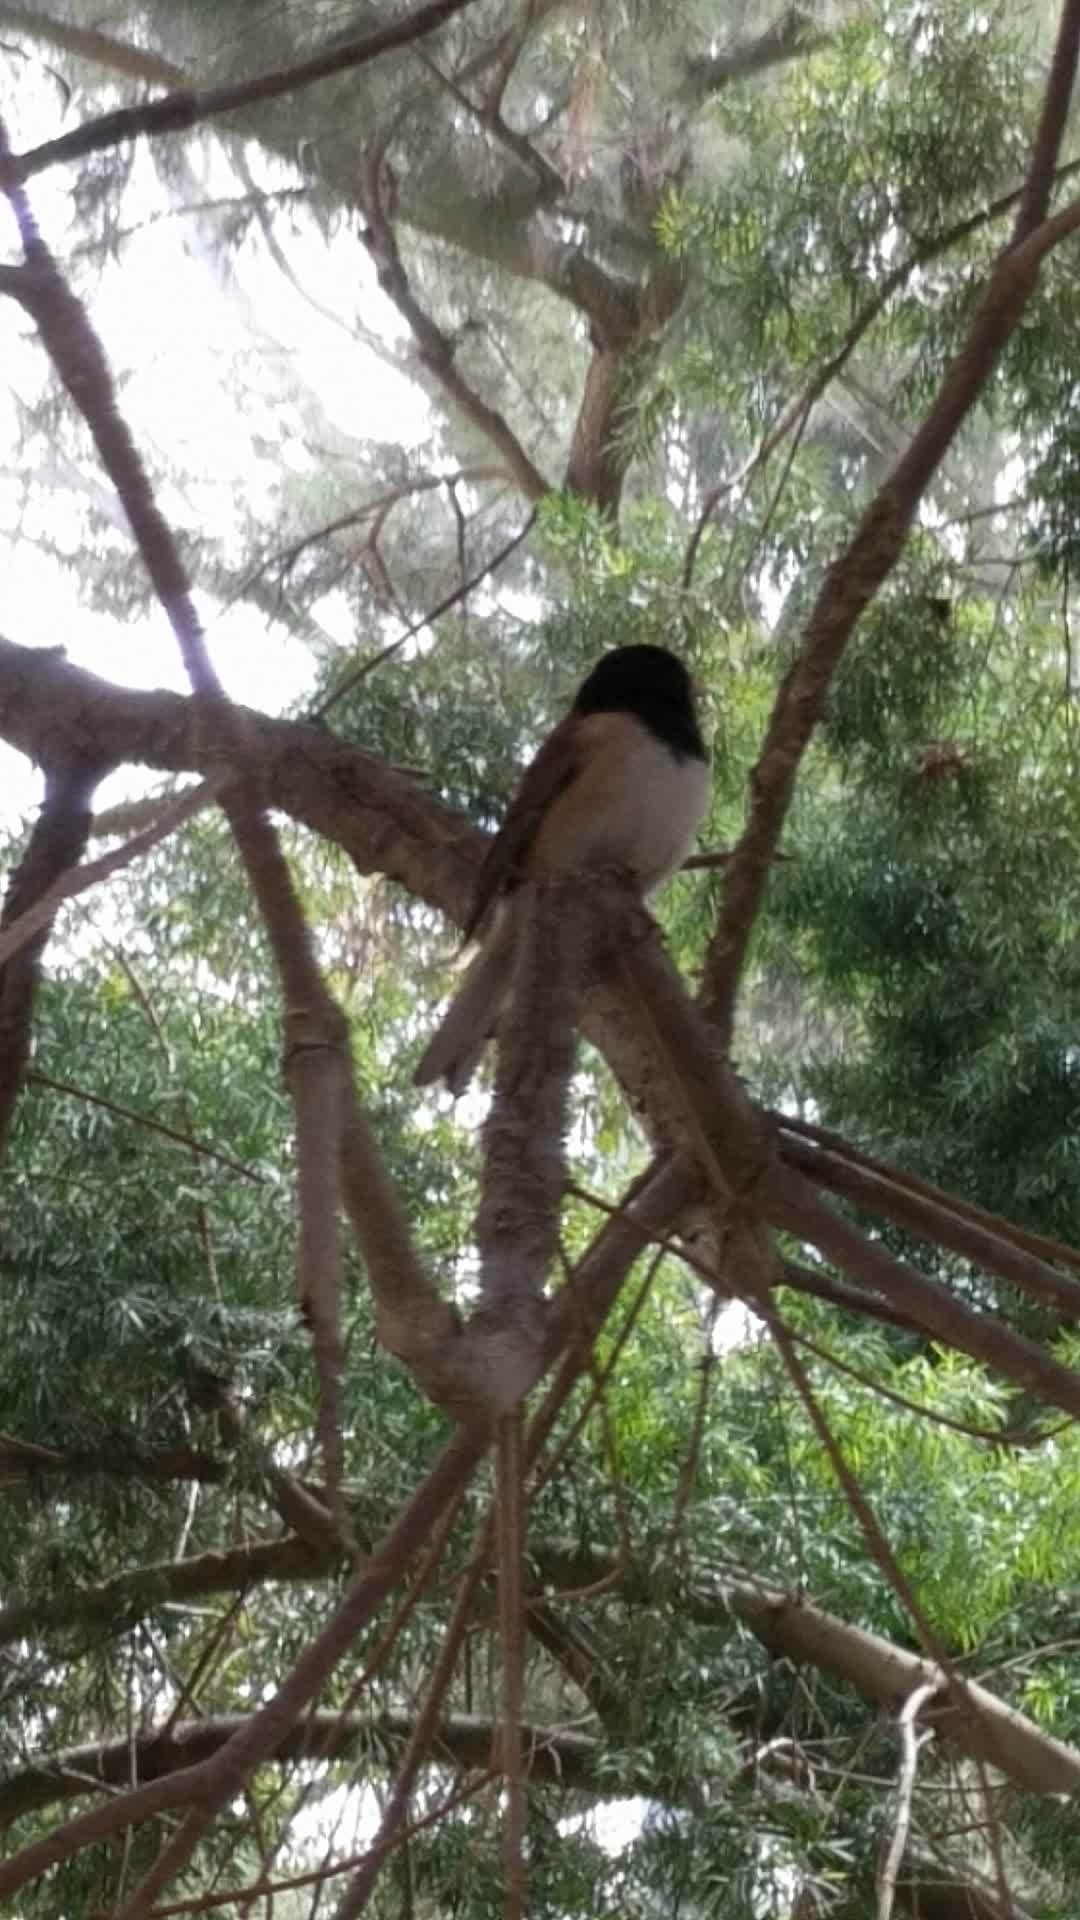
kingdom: Animalia
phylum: Chordata
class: Aves
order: Passeriformes
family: Passerellidae
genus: Junco
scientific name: Junco hyemalis
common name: Dark-eyed junco
